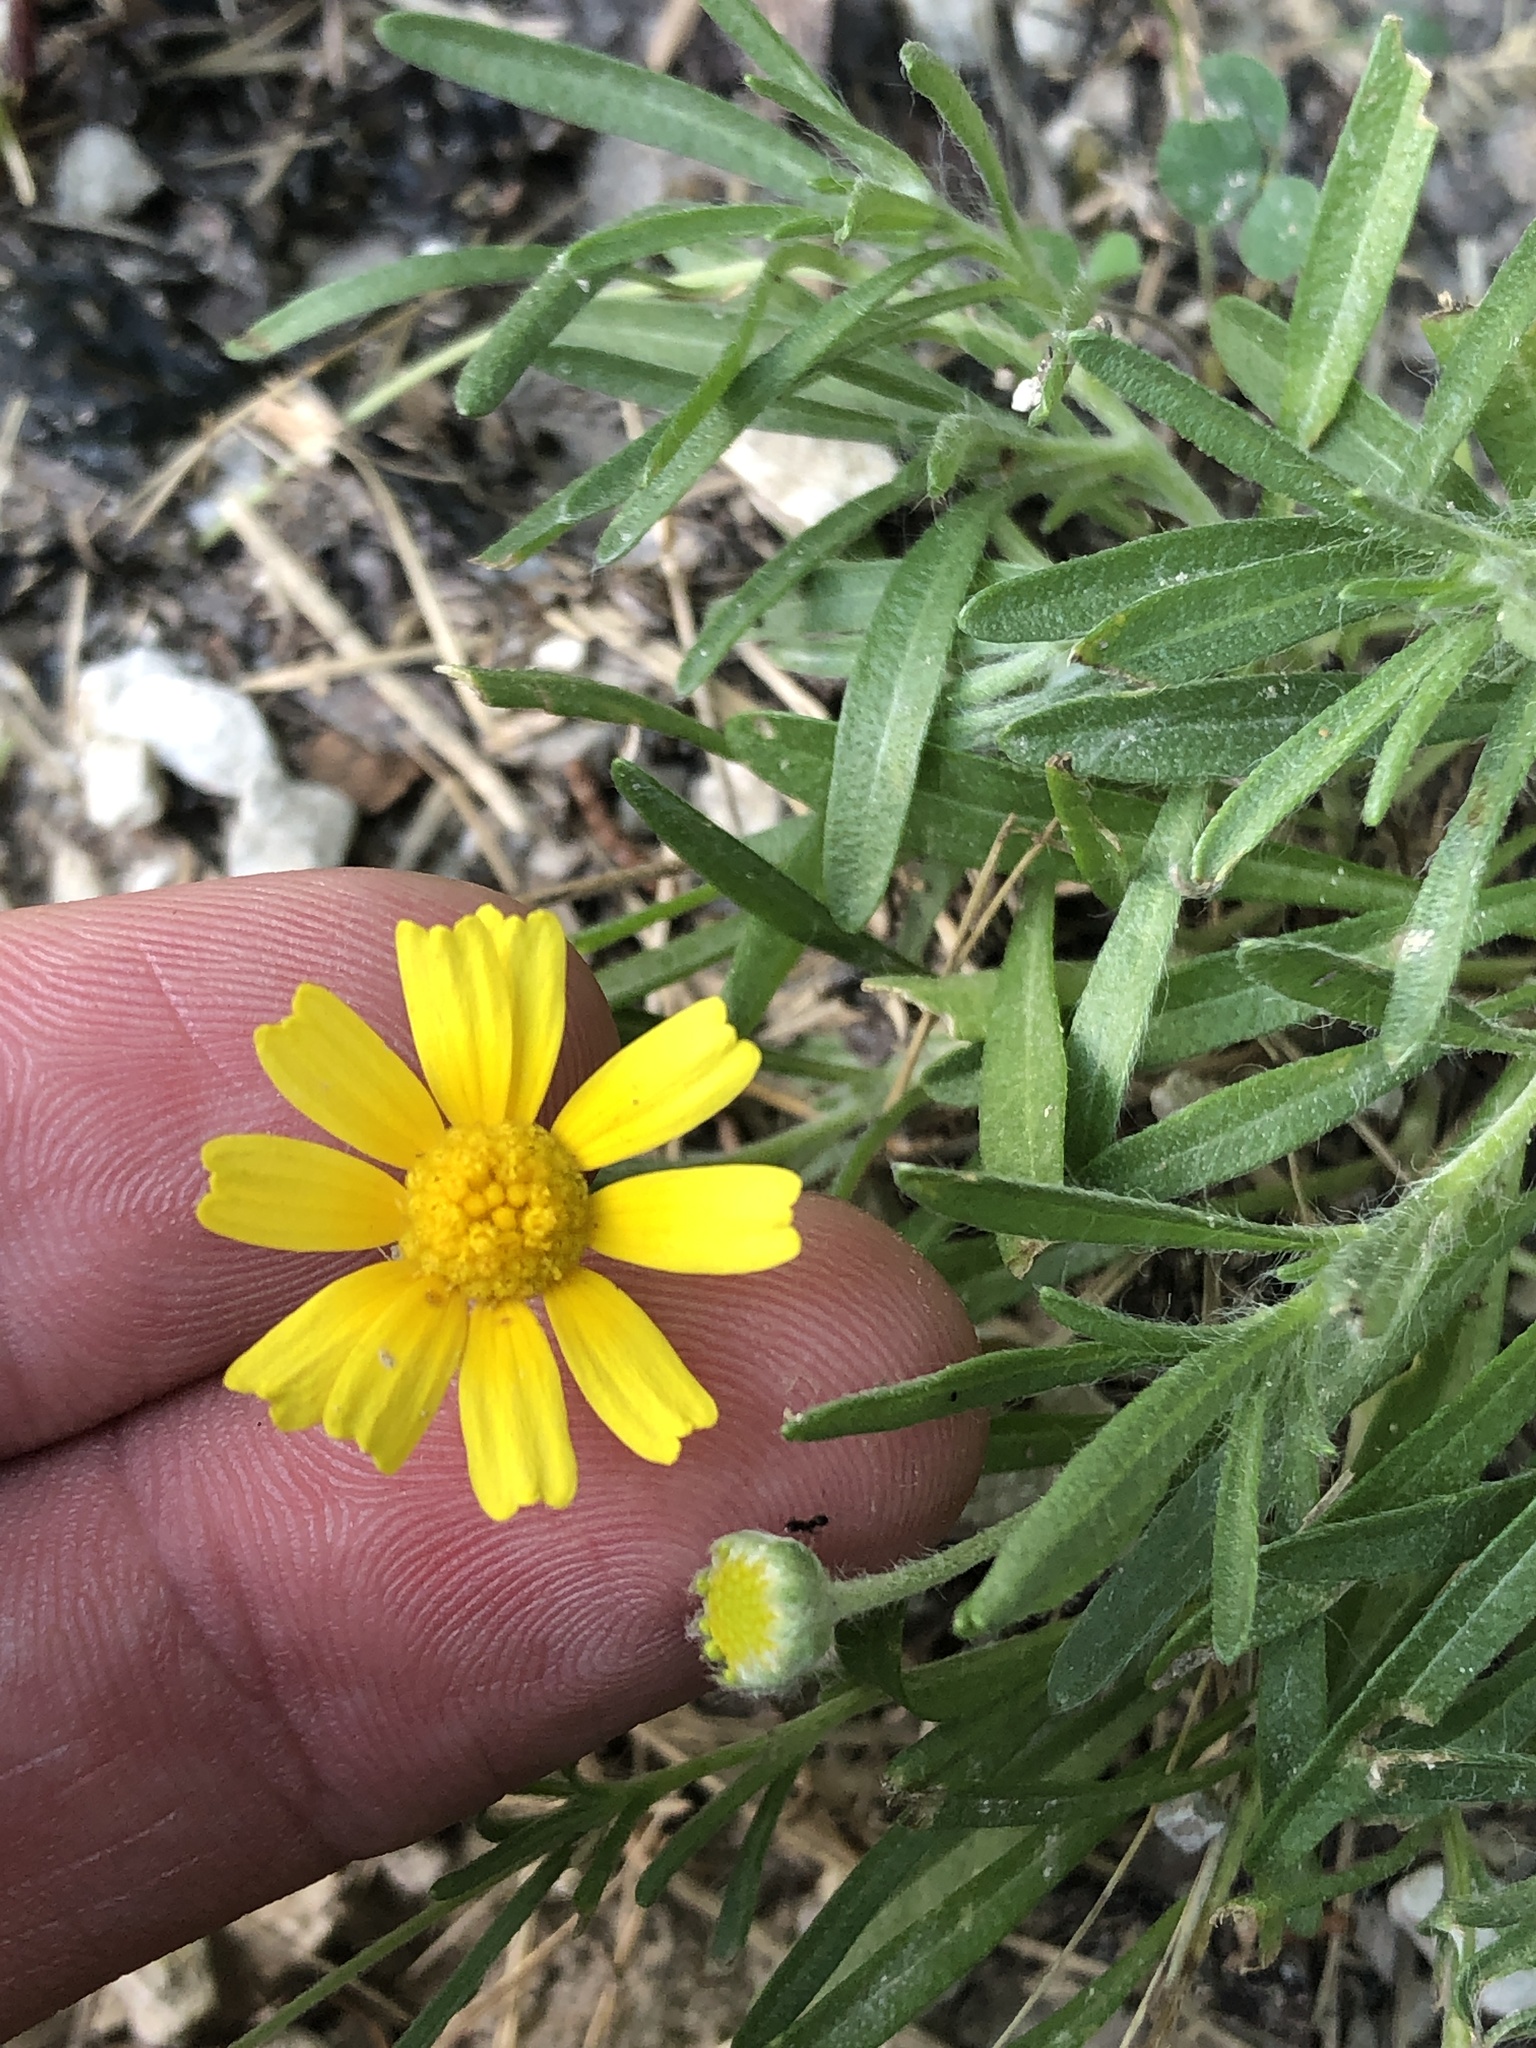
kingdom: Plantae
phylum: Tracheophyta
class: Magnoliopsida
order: Asterales
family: Asteraceae
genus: Tetraneuris
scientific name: Tetraneuris scaposa
